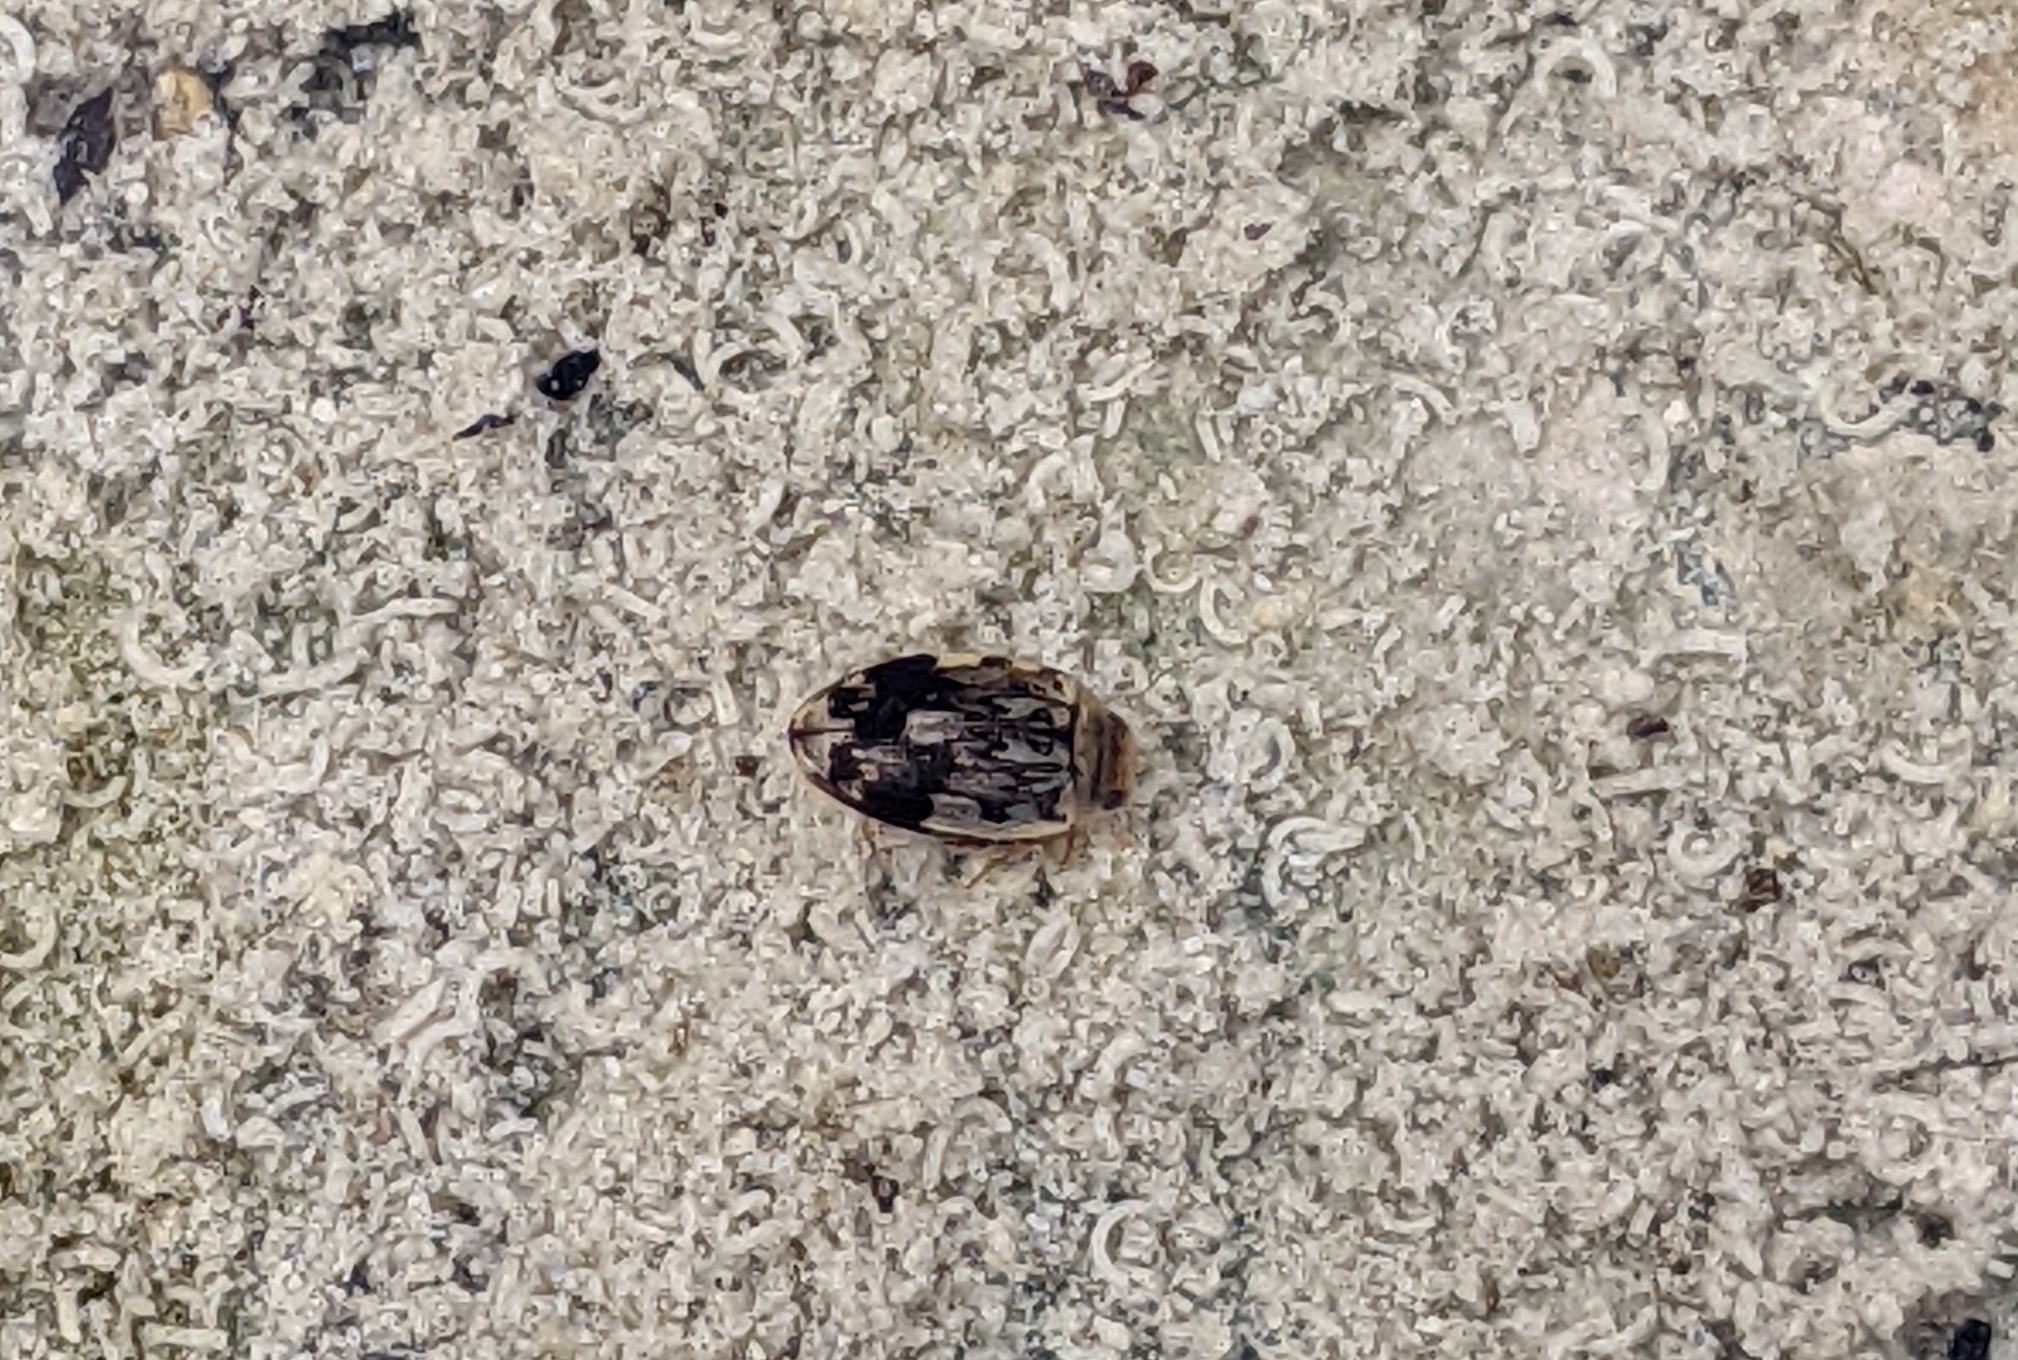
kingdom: Animalia
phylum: Arthropoda
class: Insecta
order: Coleoptera
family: Dytiscidae
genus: Laccophilus
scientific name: Laccophilus fasciatus
